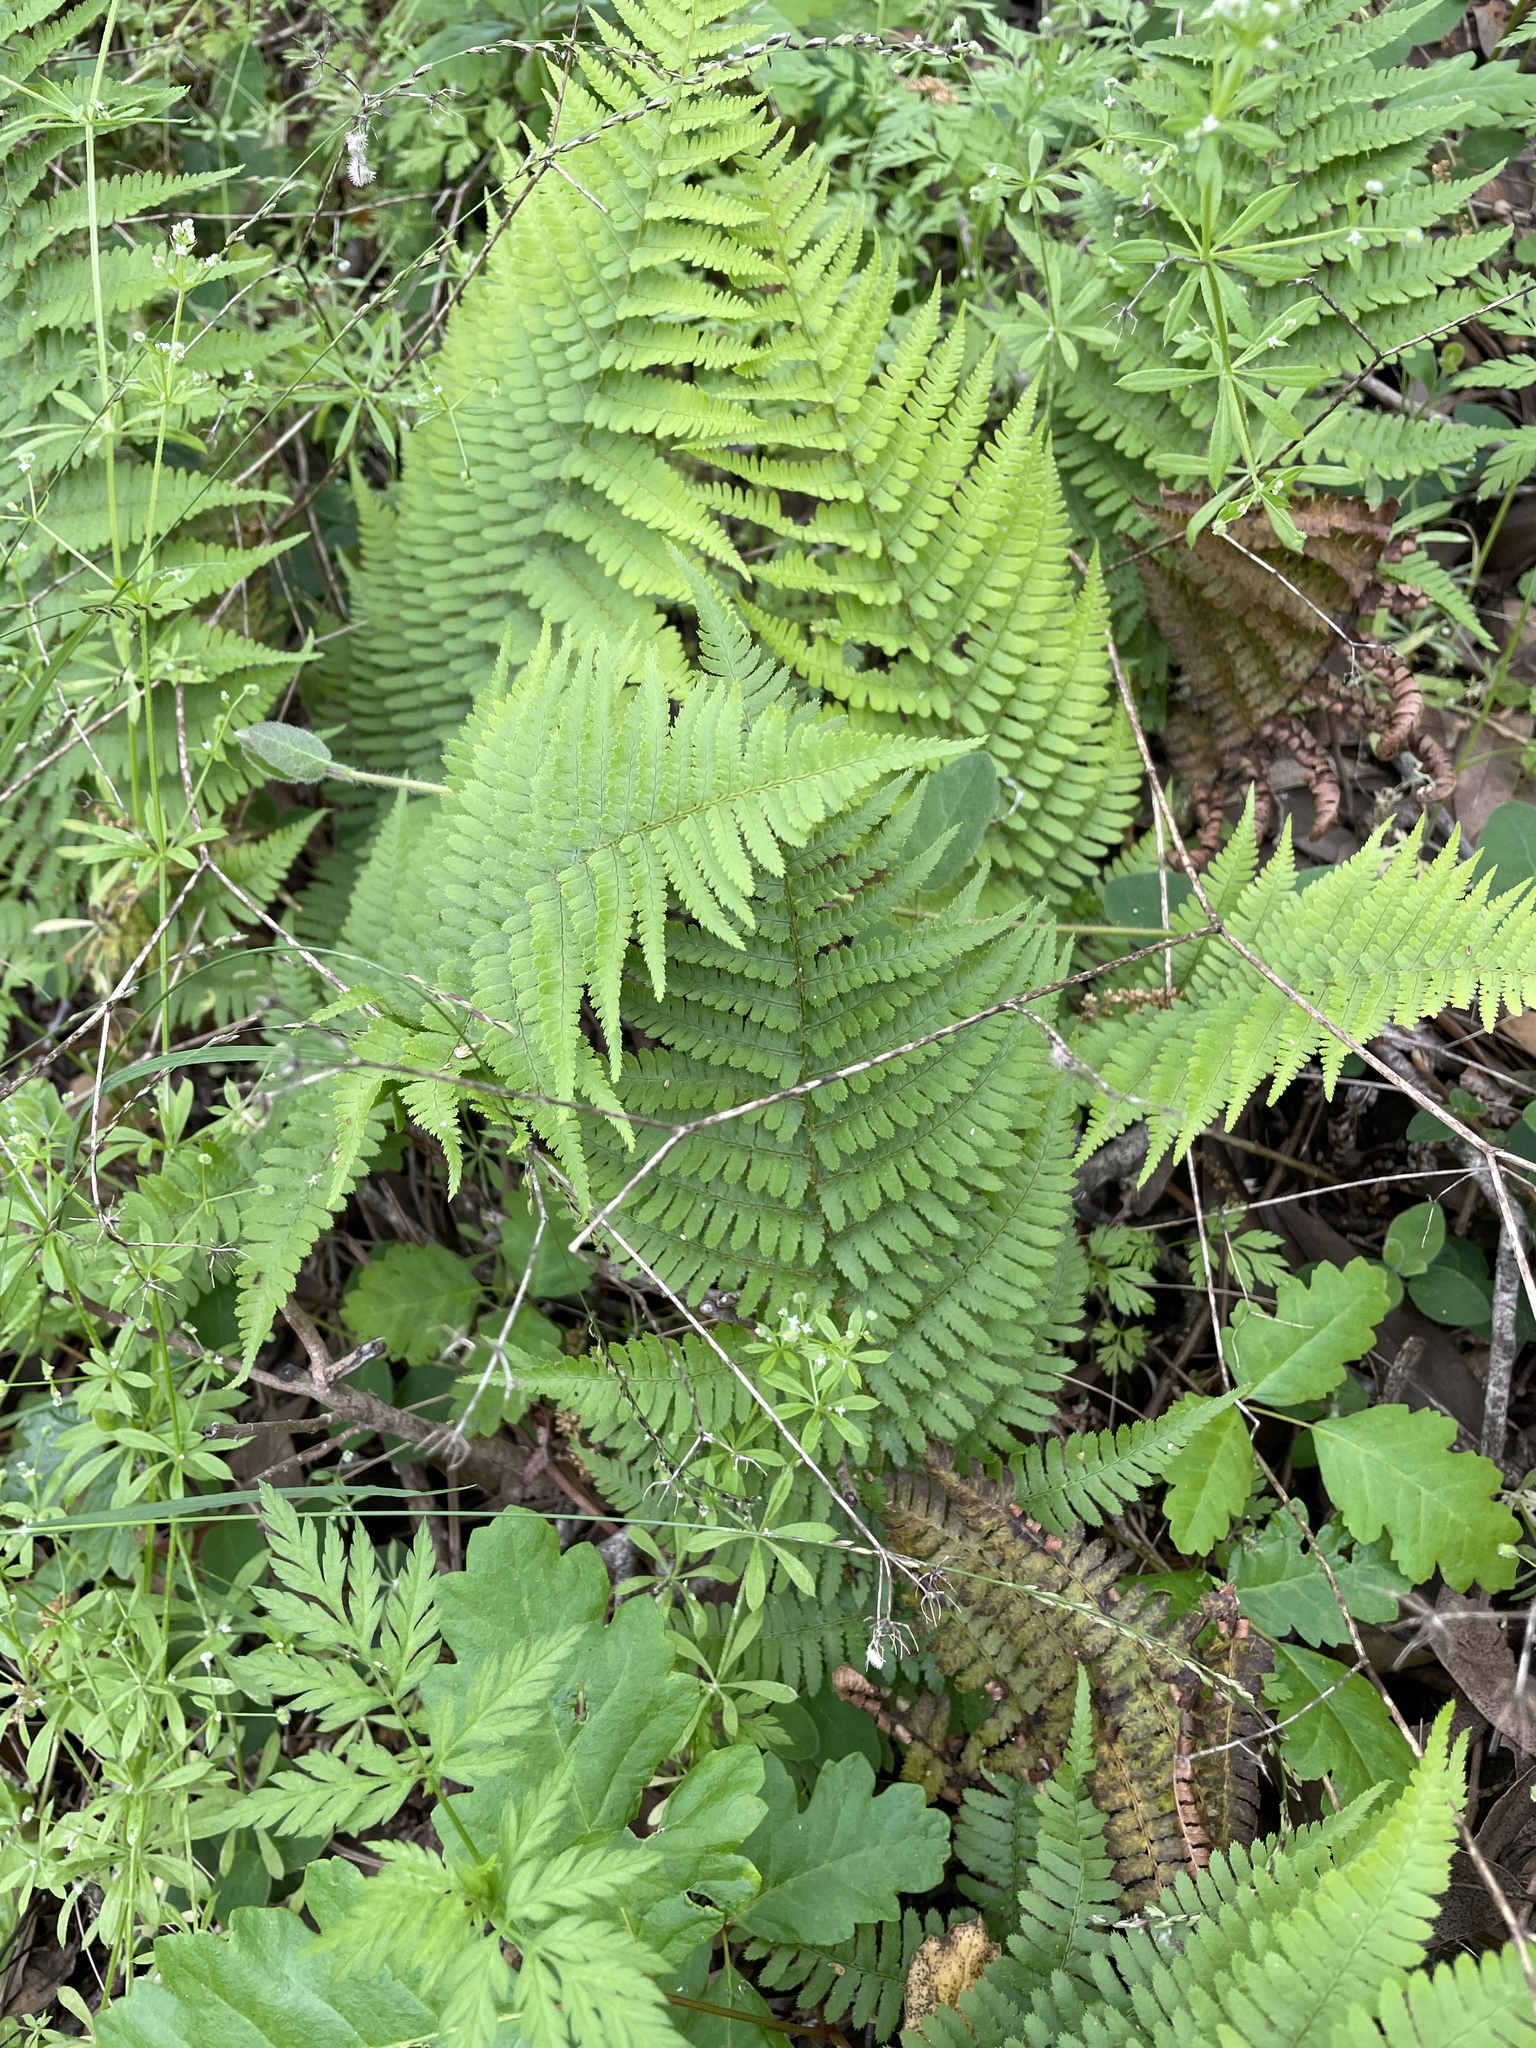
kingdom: Plantae
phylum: Tracheophyta
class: Polypodiopsida
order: Polypodiales
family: Dryopteridaceae
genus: Dryopteris
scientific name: Dryopteris arguta
